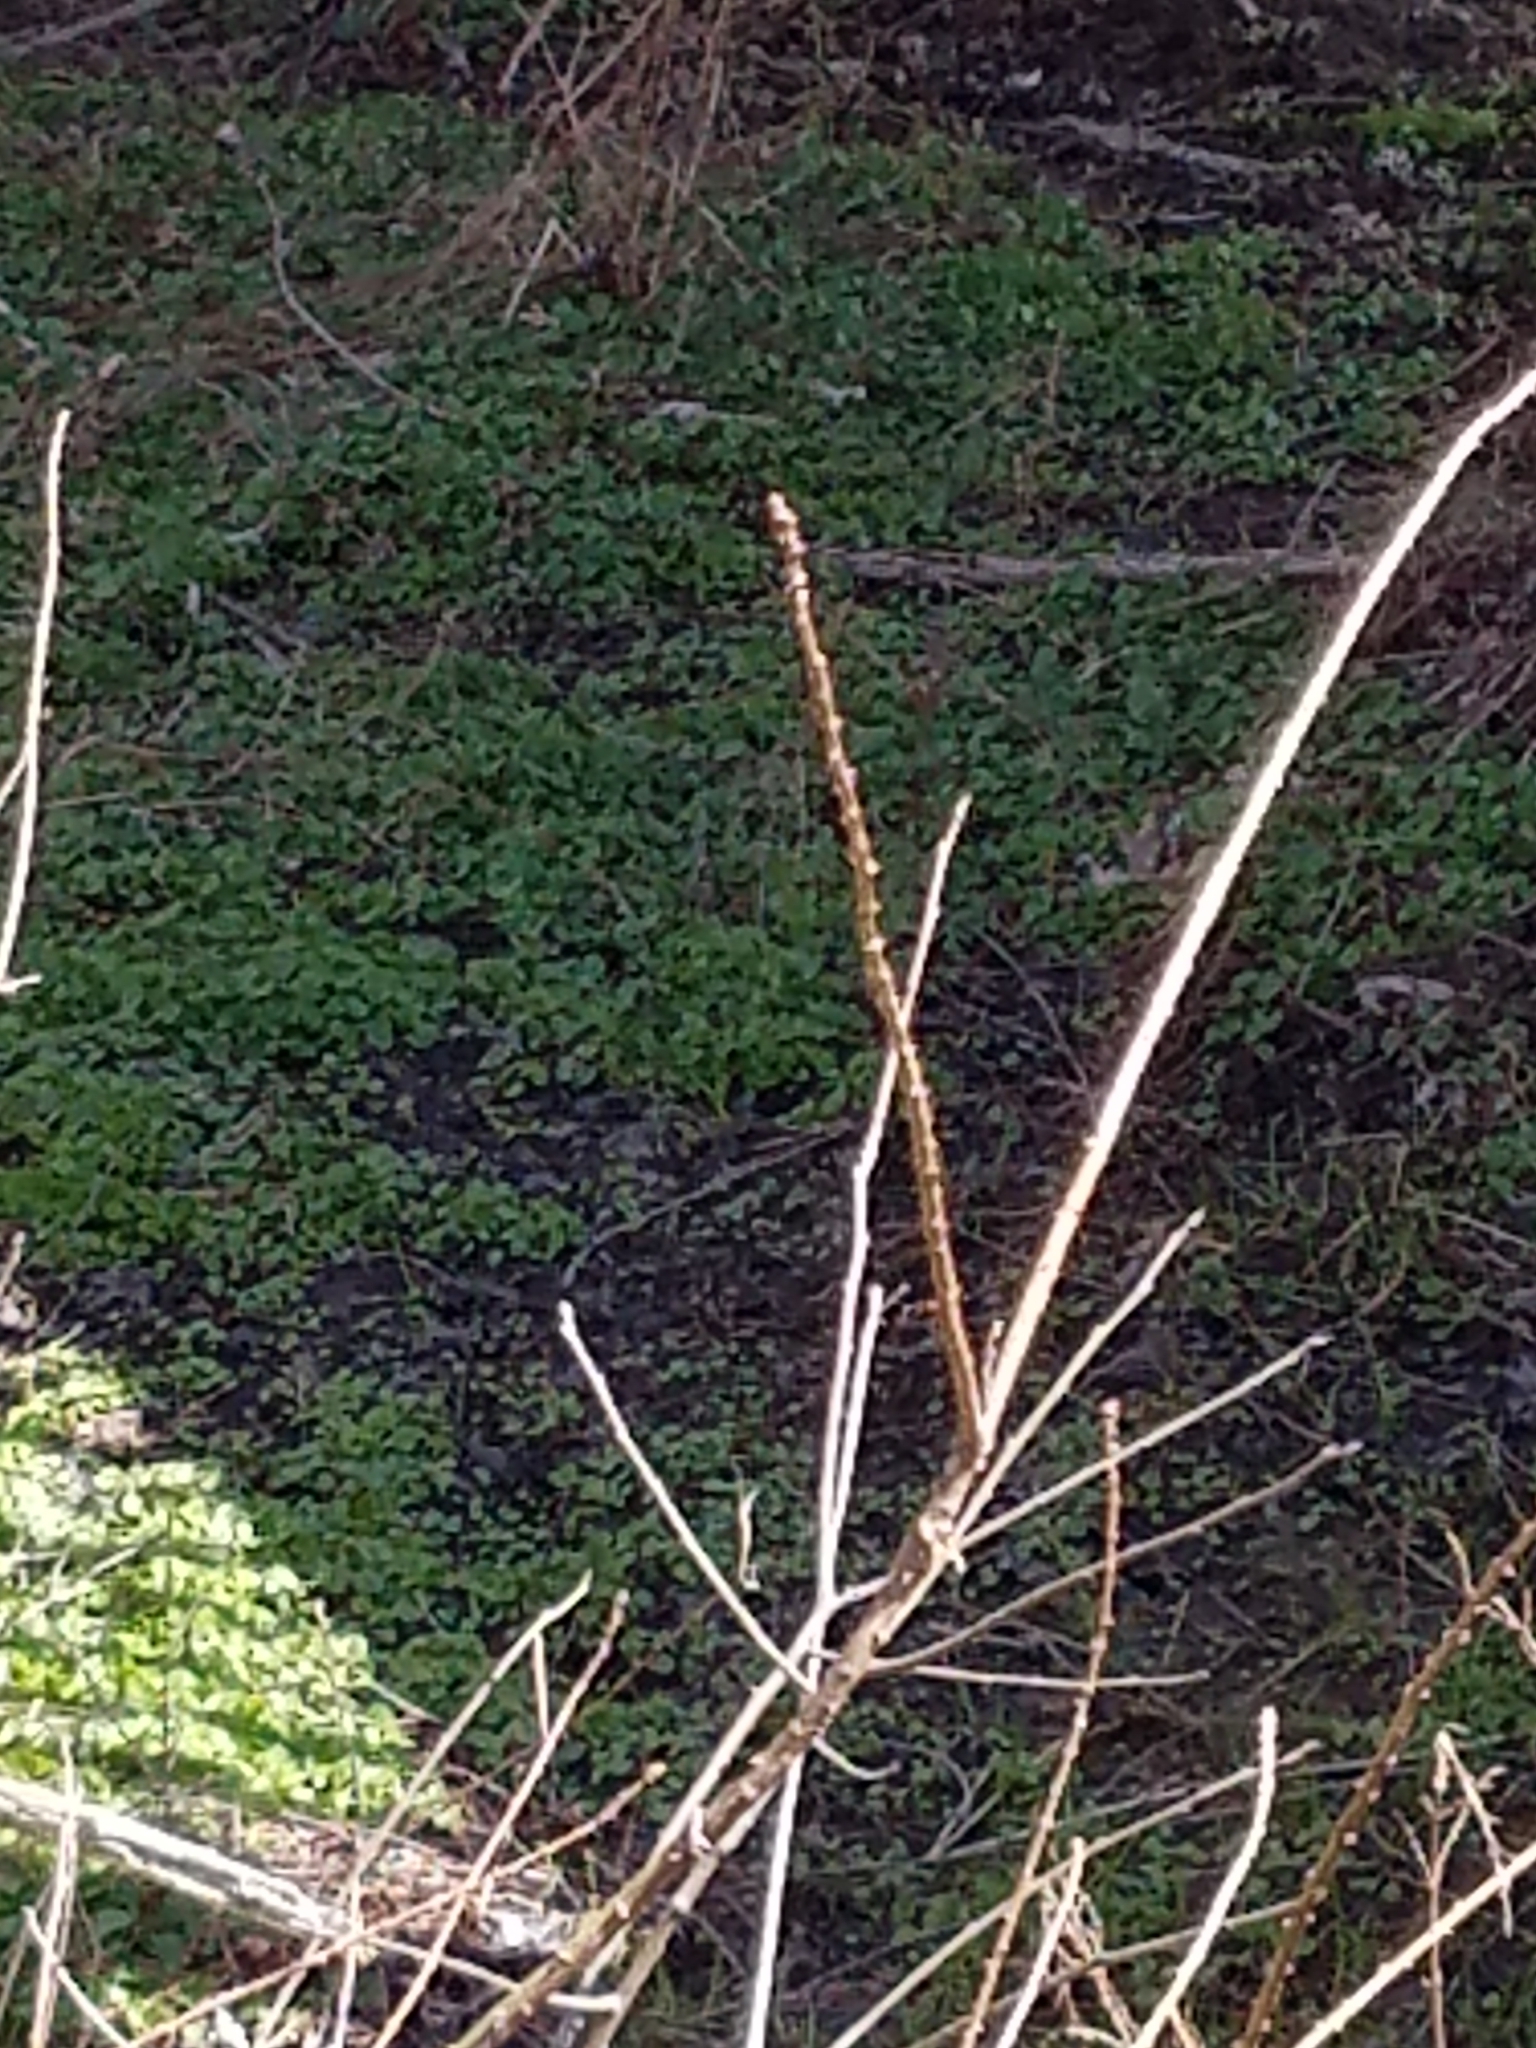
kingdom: Plantae
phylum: Tracheophyta
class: Pinopsida
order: Pinales
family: Cupressaceae
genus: Taxodium
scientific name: Taxodium distichum
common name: Bald cypress
